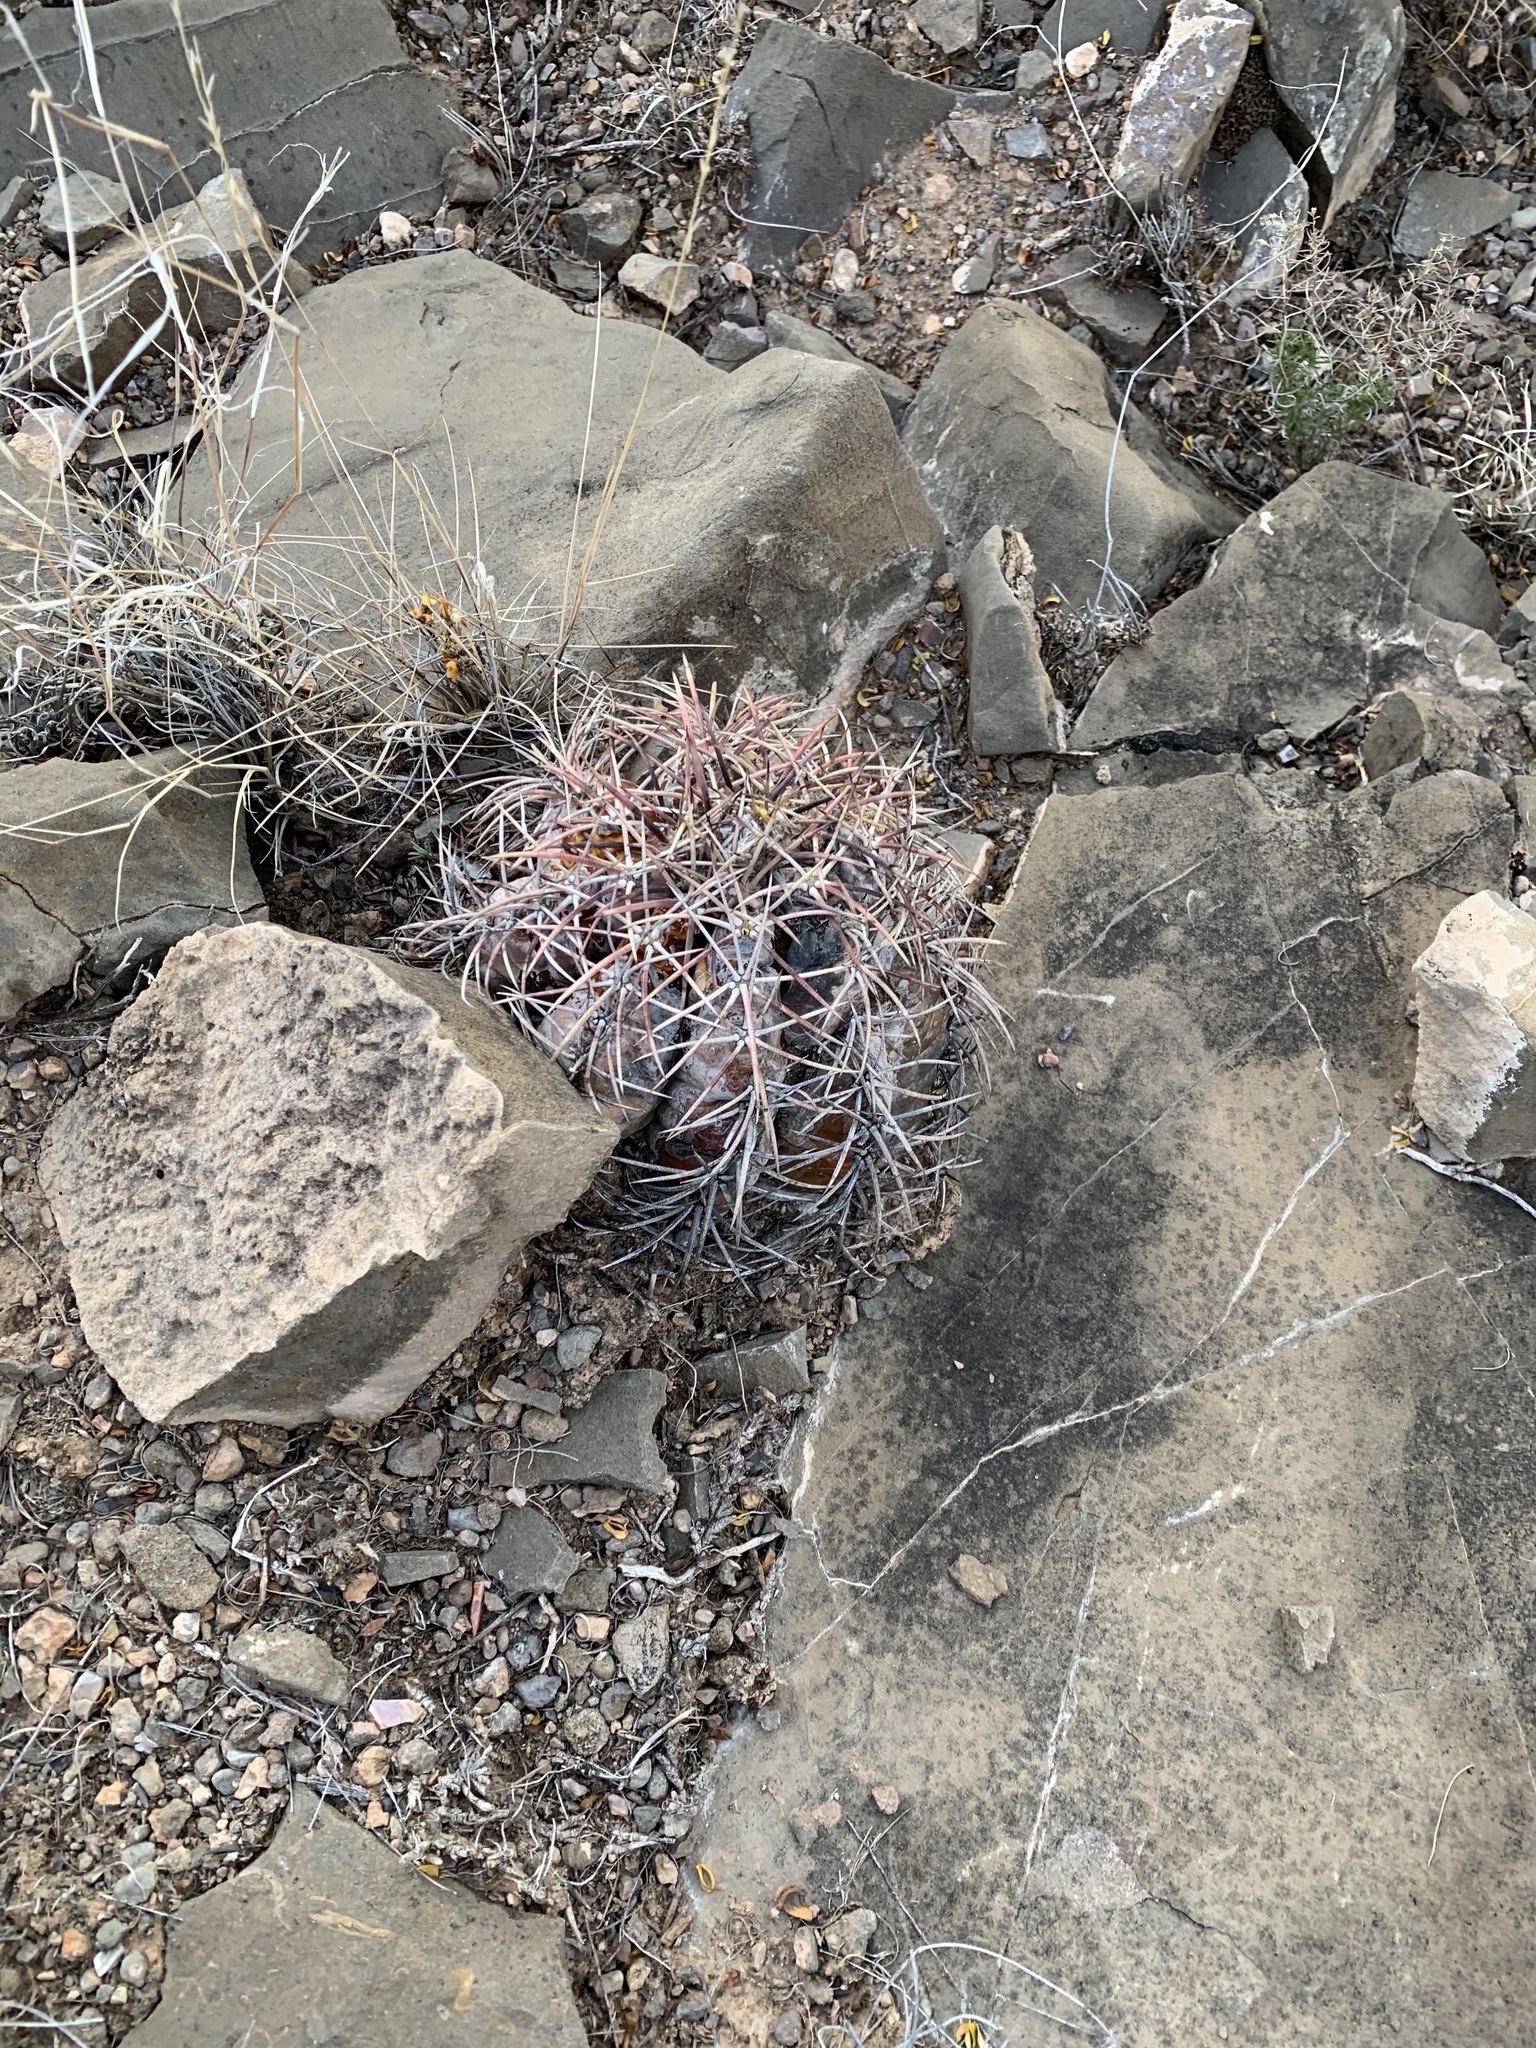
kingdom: Plantae
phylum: Tracheophyta
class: Magnoliopsida
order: Caryophyllales
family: Cactaceae
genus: Echinocactus
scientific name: Echinocactus horizonthalonius
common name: Devilshead
